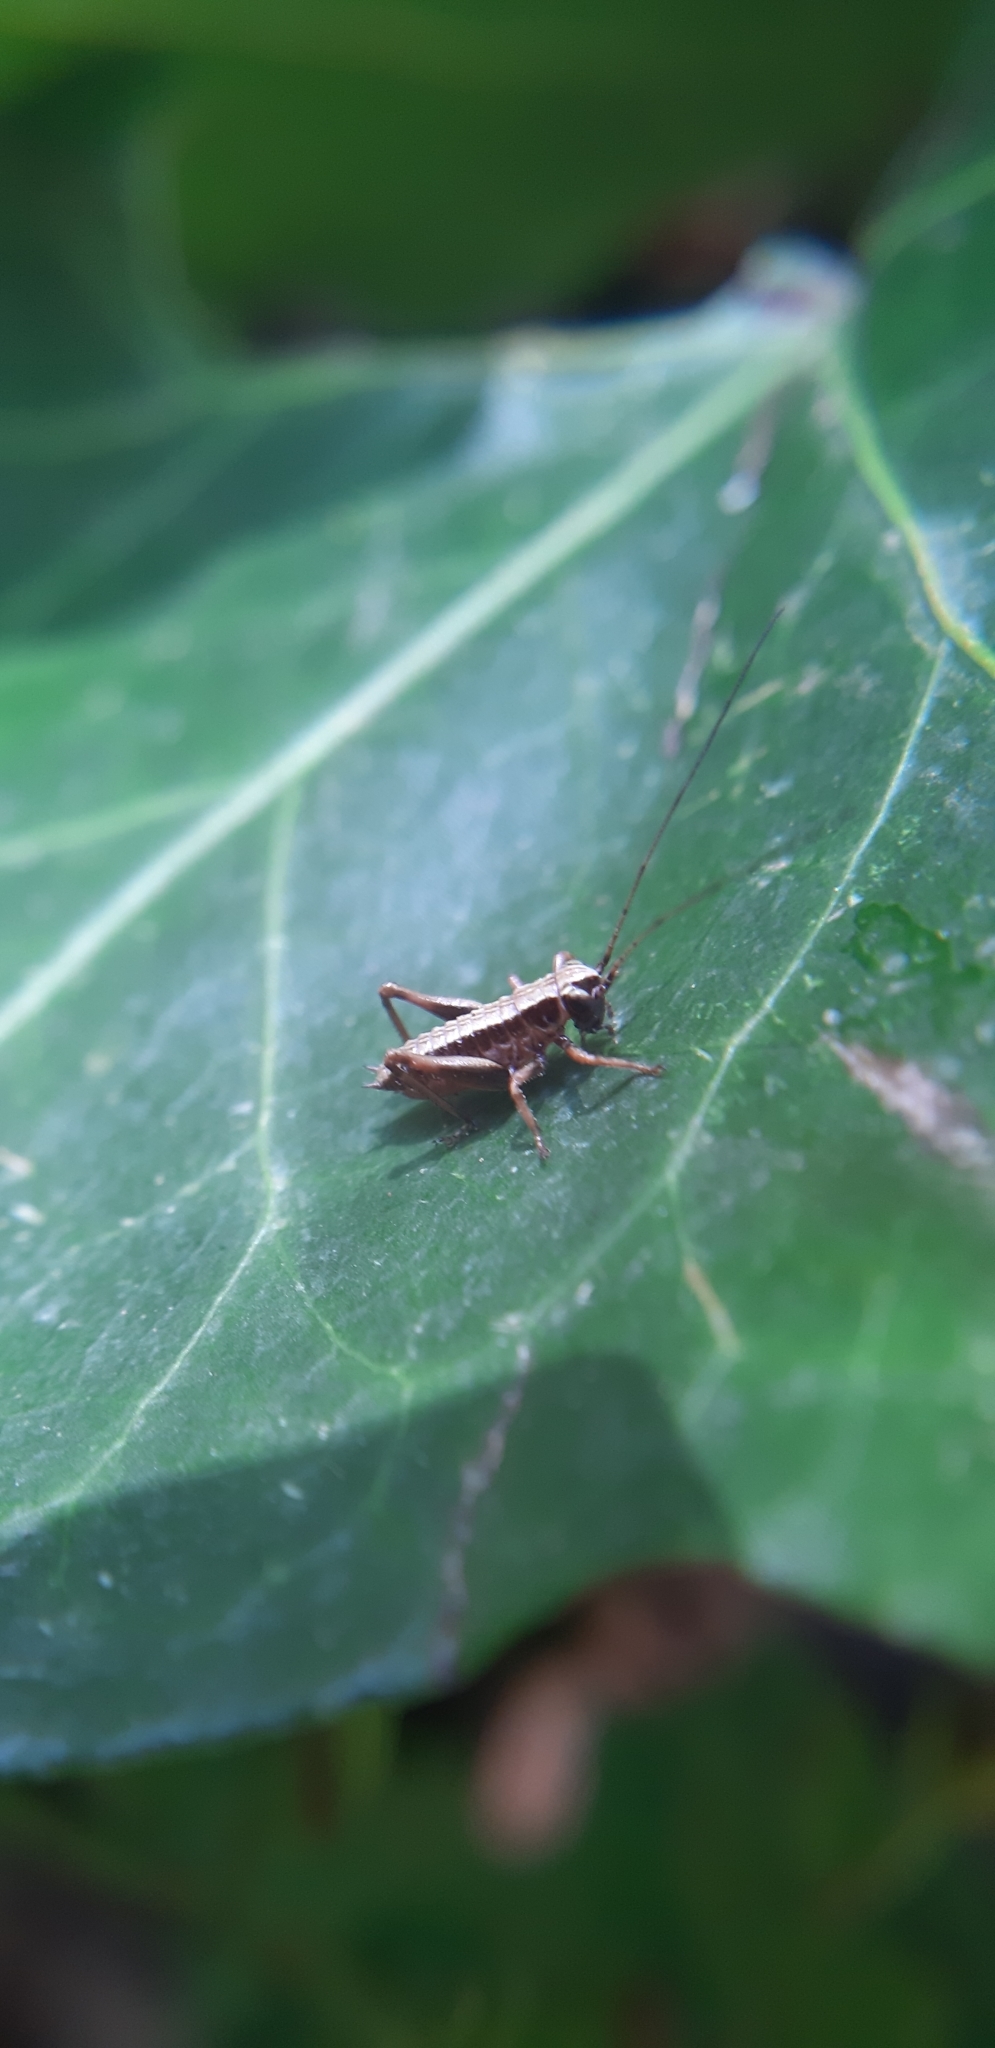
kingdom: Animalia
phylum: Arthropoda
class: Insecta
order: Orthoptera
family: Tettigoniidae
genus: Pholidoptera
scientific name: Pholidoptera griseoaptera
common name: Dark bush-cricket
